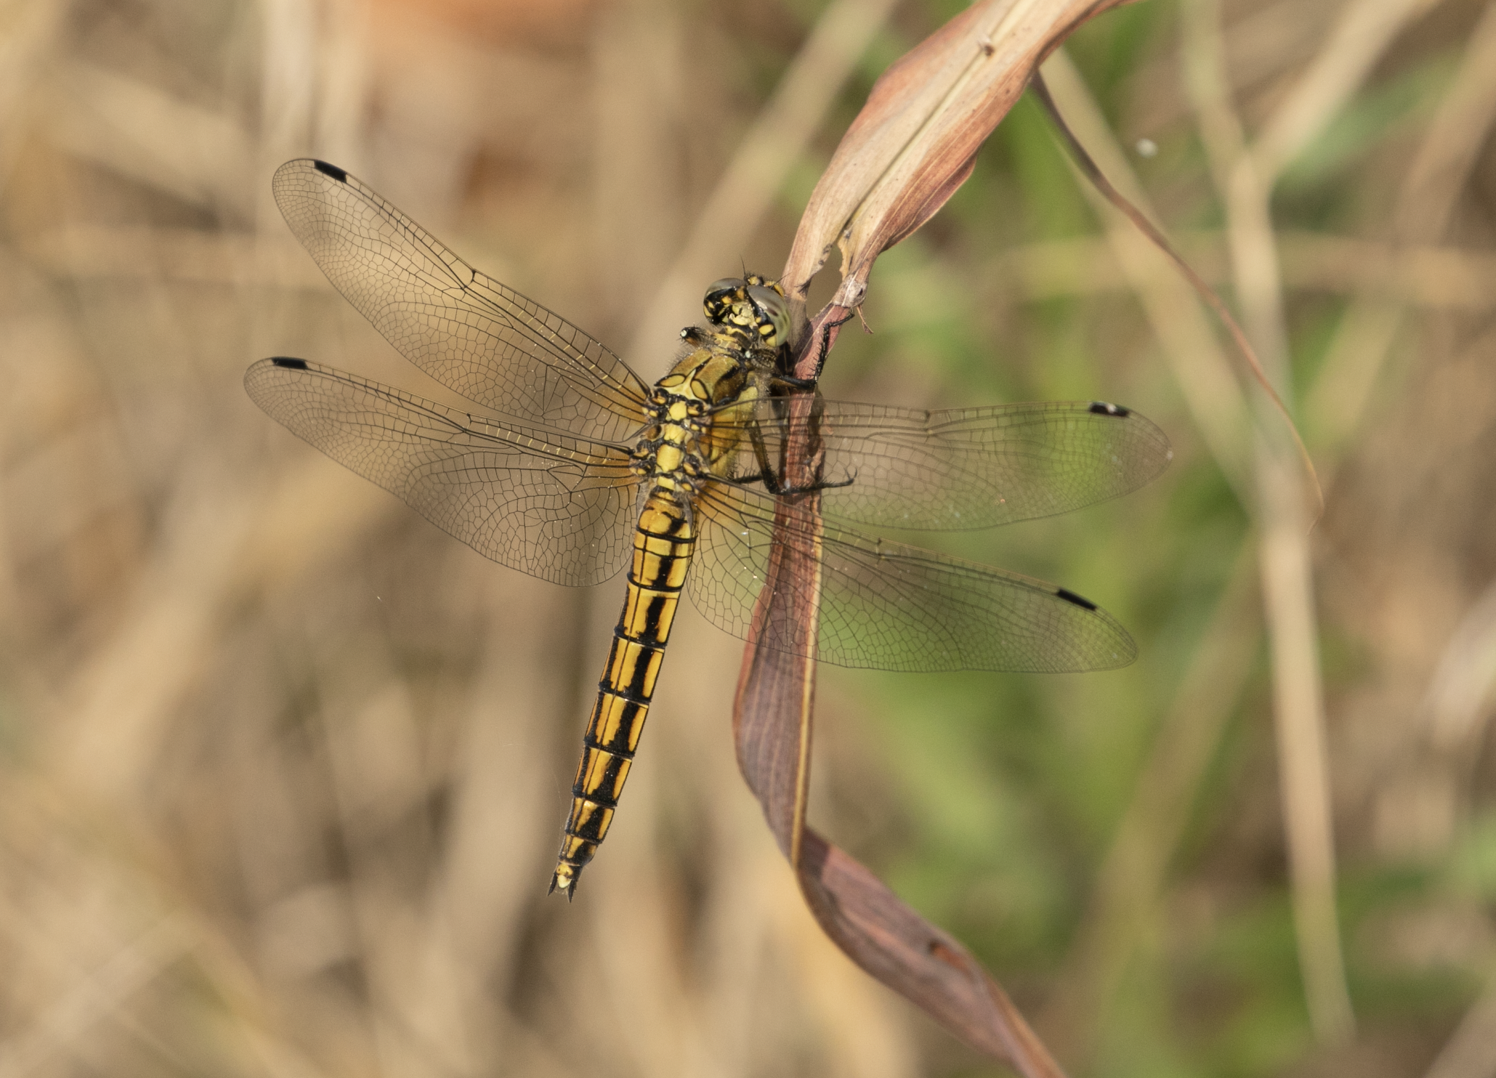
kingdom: Animalia
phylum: Arthropoda
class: Insecta
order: Odonata
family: Libellulidae
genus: Orthetrum
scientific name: Orthetrum cancellatum
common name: Black-tailed skimmer
